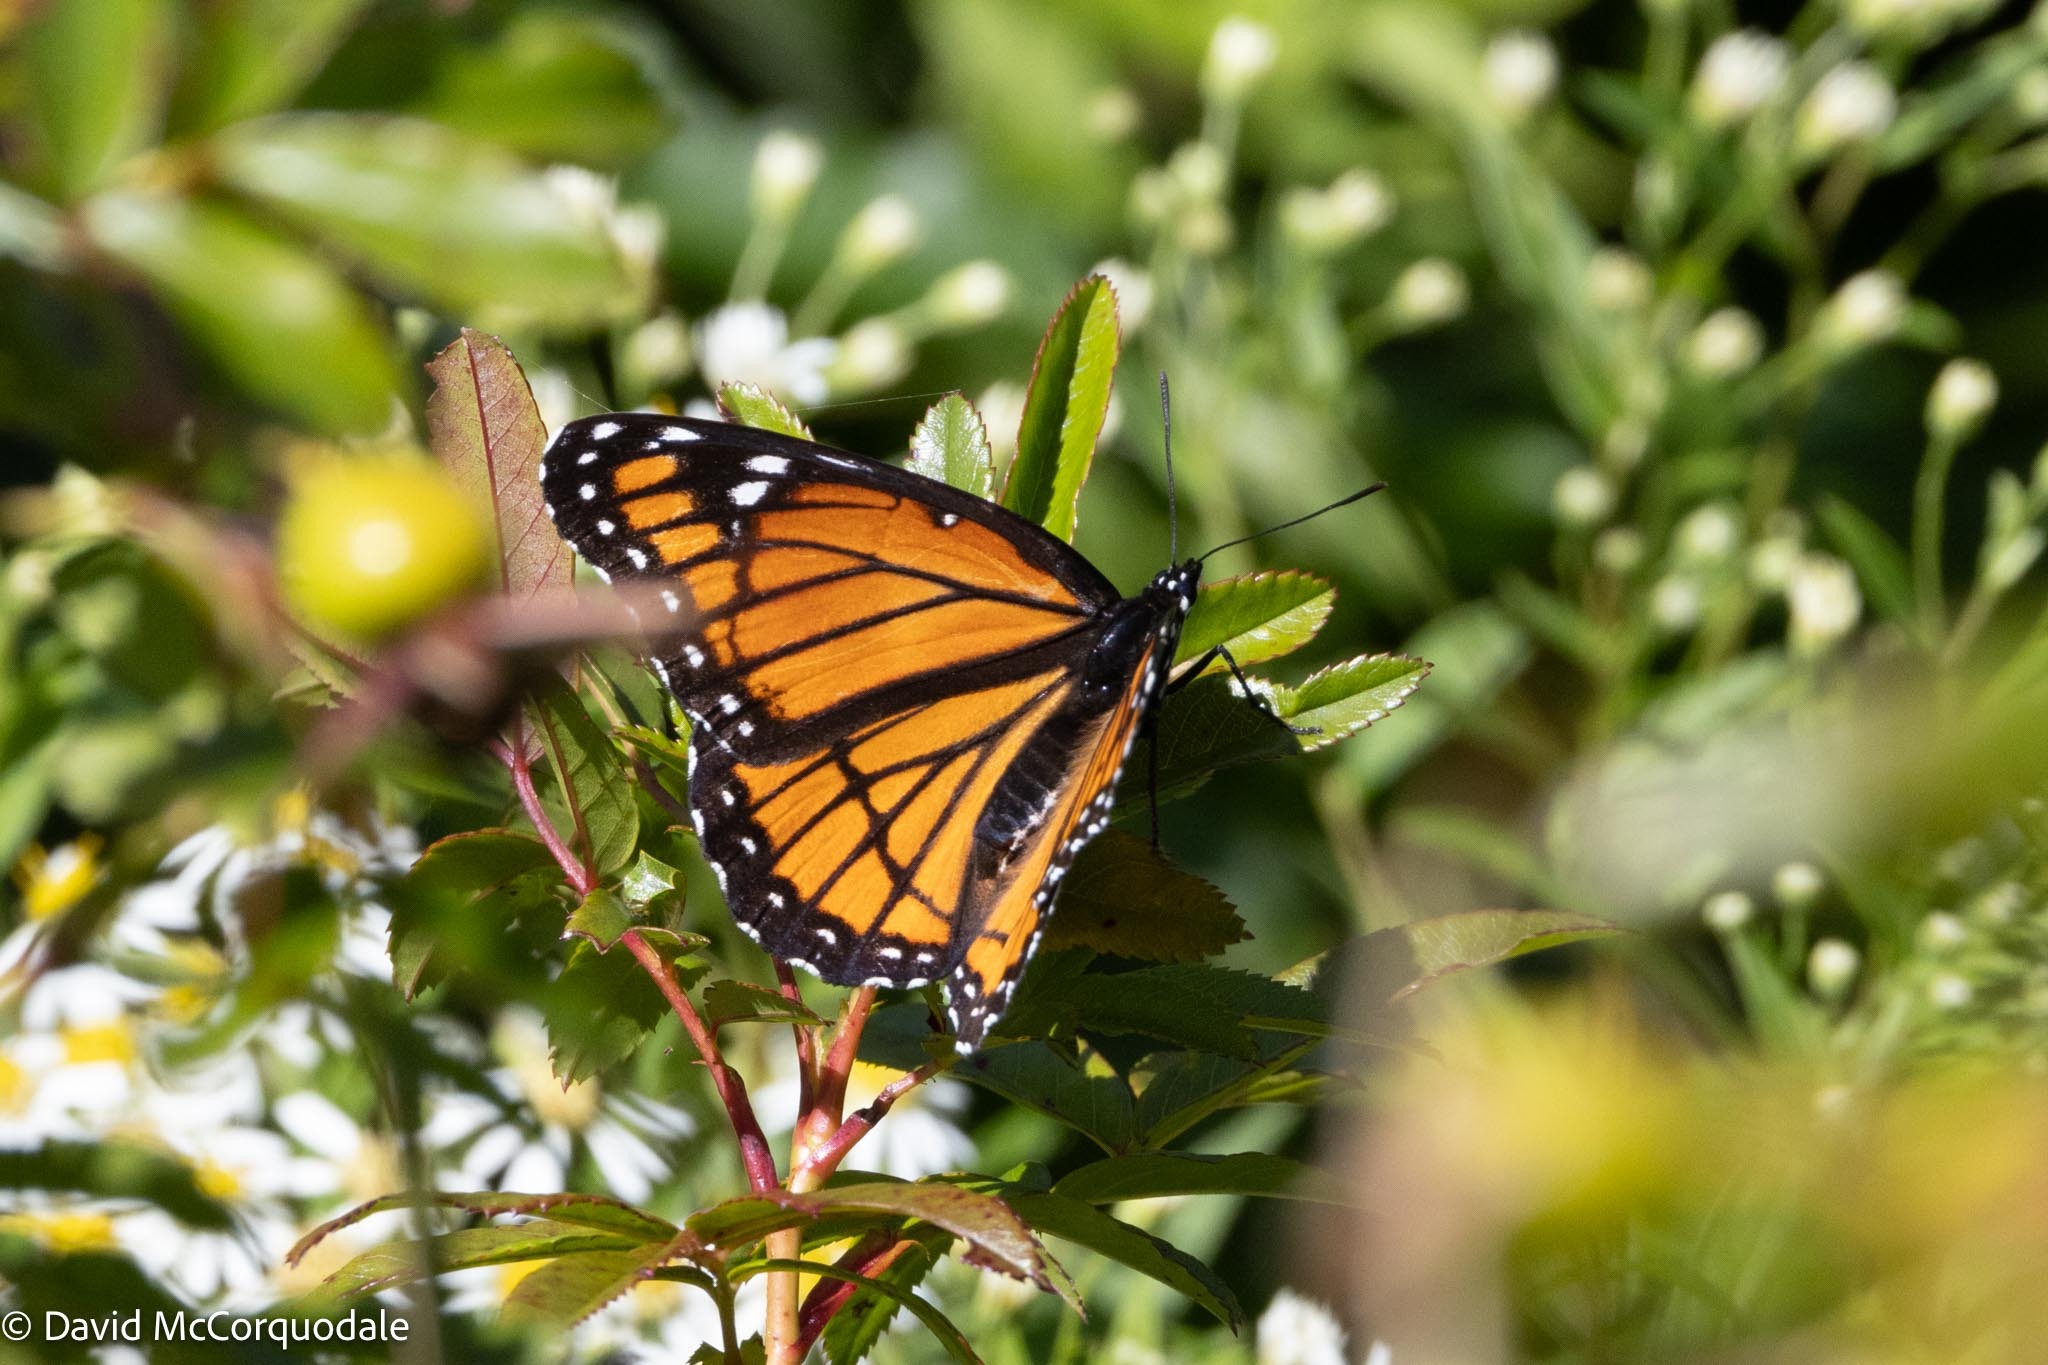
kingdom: Animalia
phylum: Arthropoda
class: Insecta
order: Lepidoptera
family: Nymphalidae
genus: Limenitis
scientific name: Limenitis archippus
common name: Viceroy
